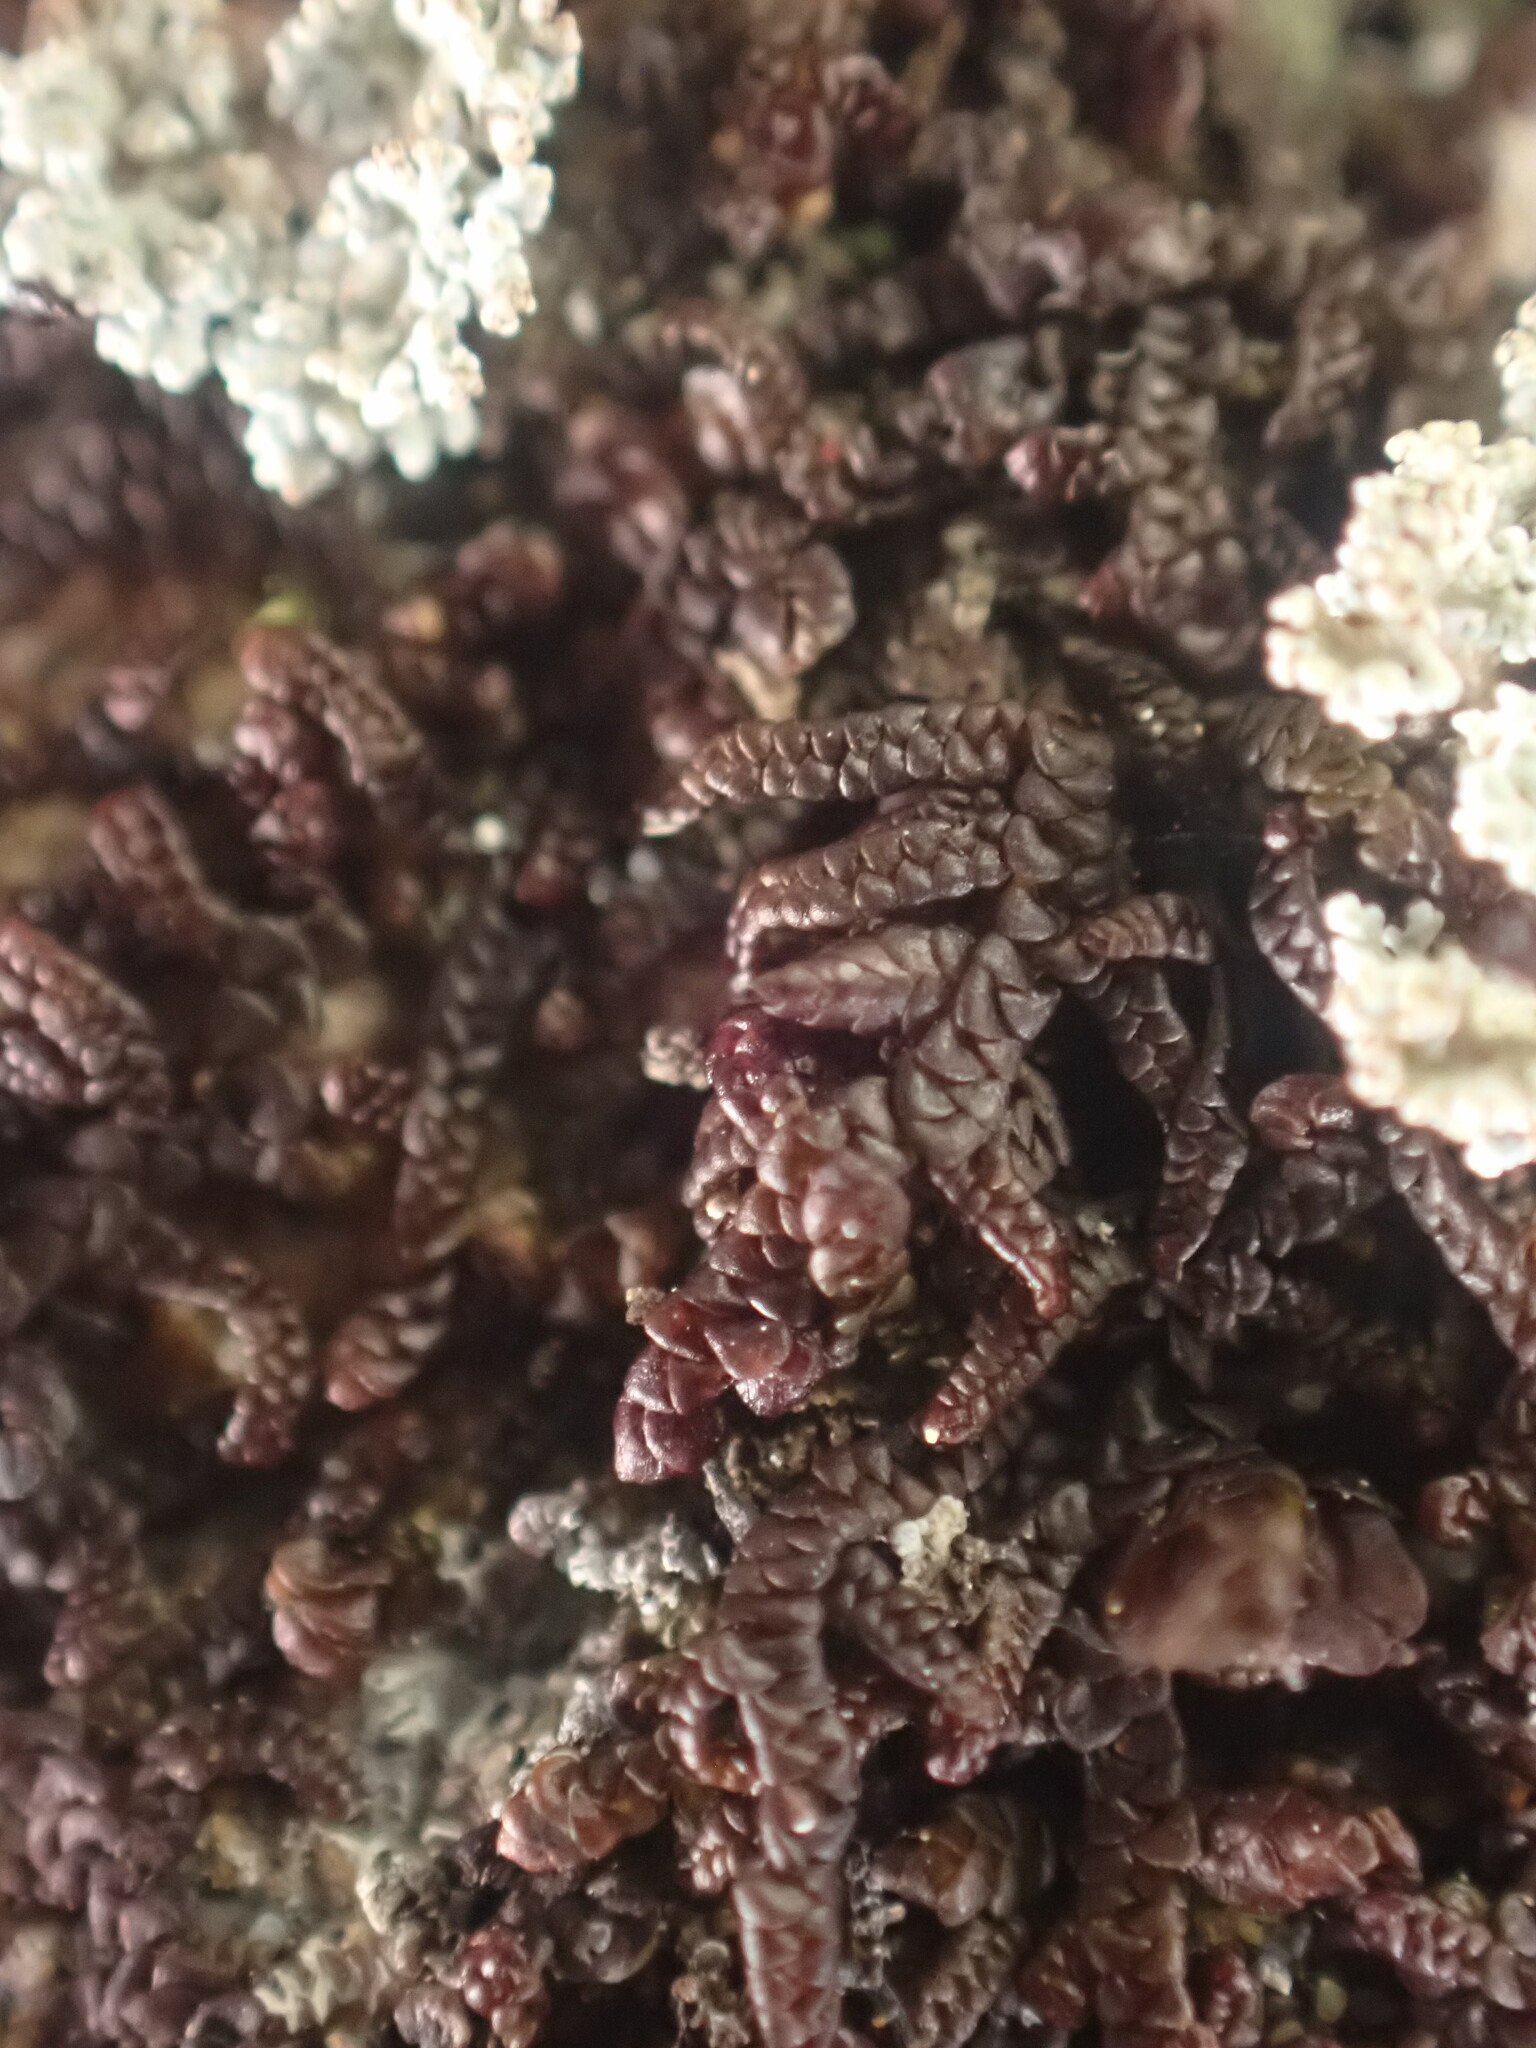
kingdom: Plantae
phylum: Marchantiophyta
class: Jungermanniopsida
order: Porellales
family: Frullaniaceae
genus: Frullania
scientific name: Frullania nisquallensis
